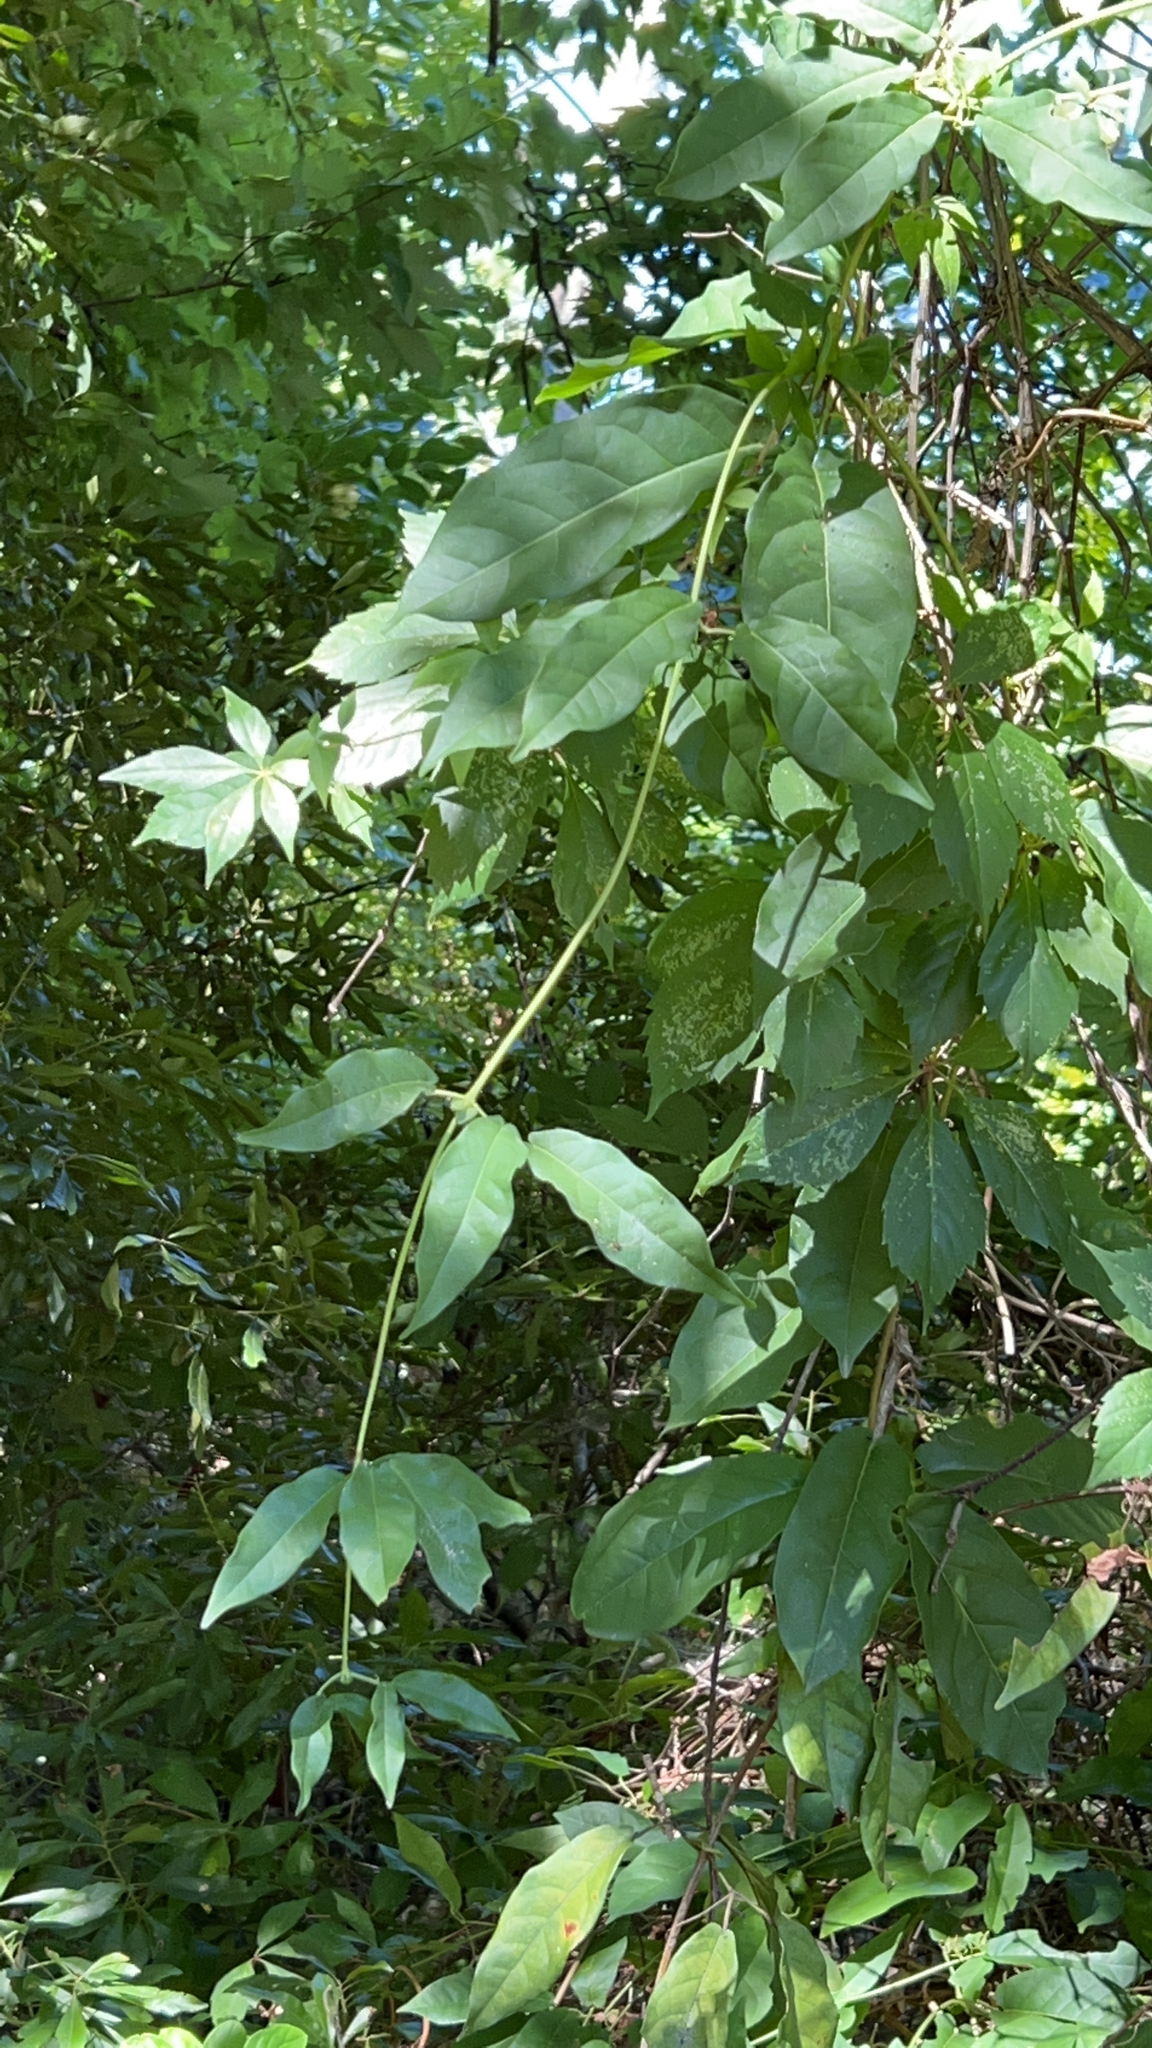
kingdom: Plantae
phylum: Tracheophyta
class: Magnoliopsida
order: Lamiales
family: Bignoniaceae
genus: Bignonia
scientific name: Bignonia capreolata
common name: Crossvine
